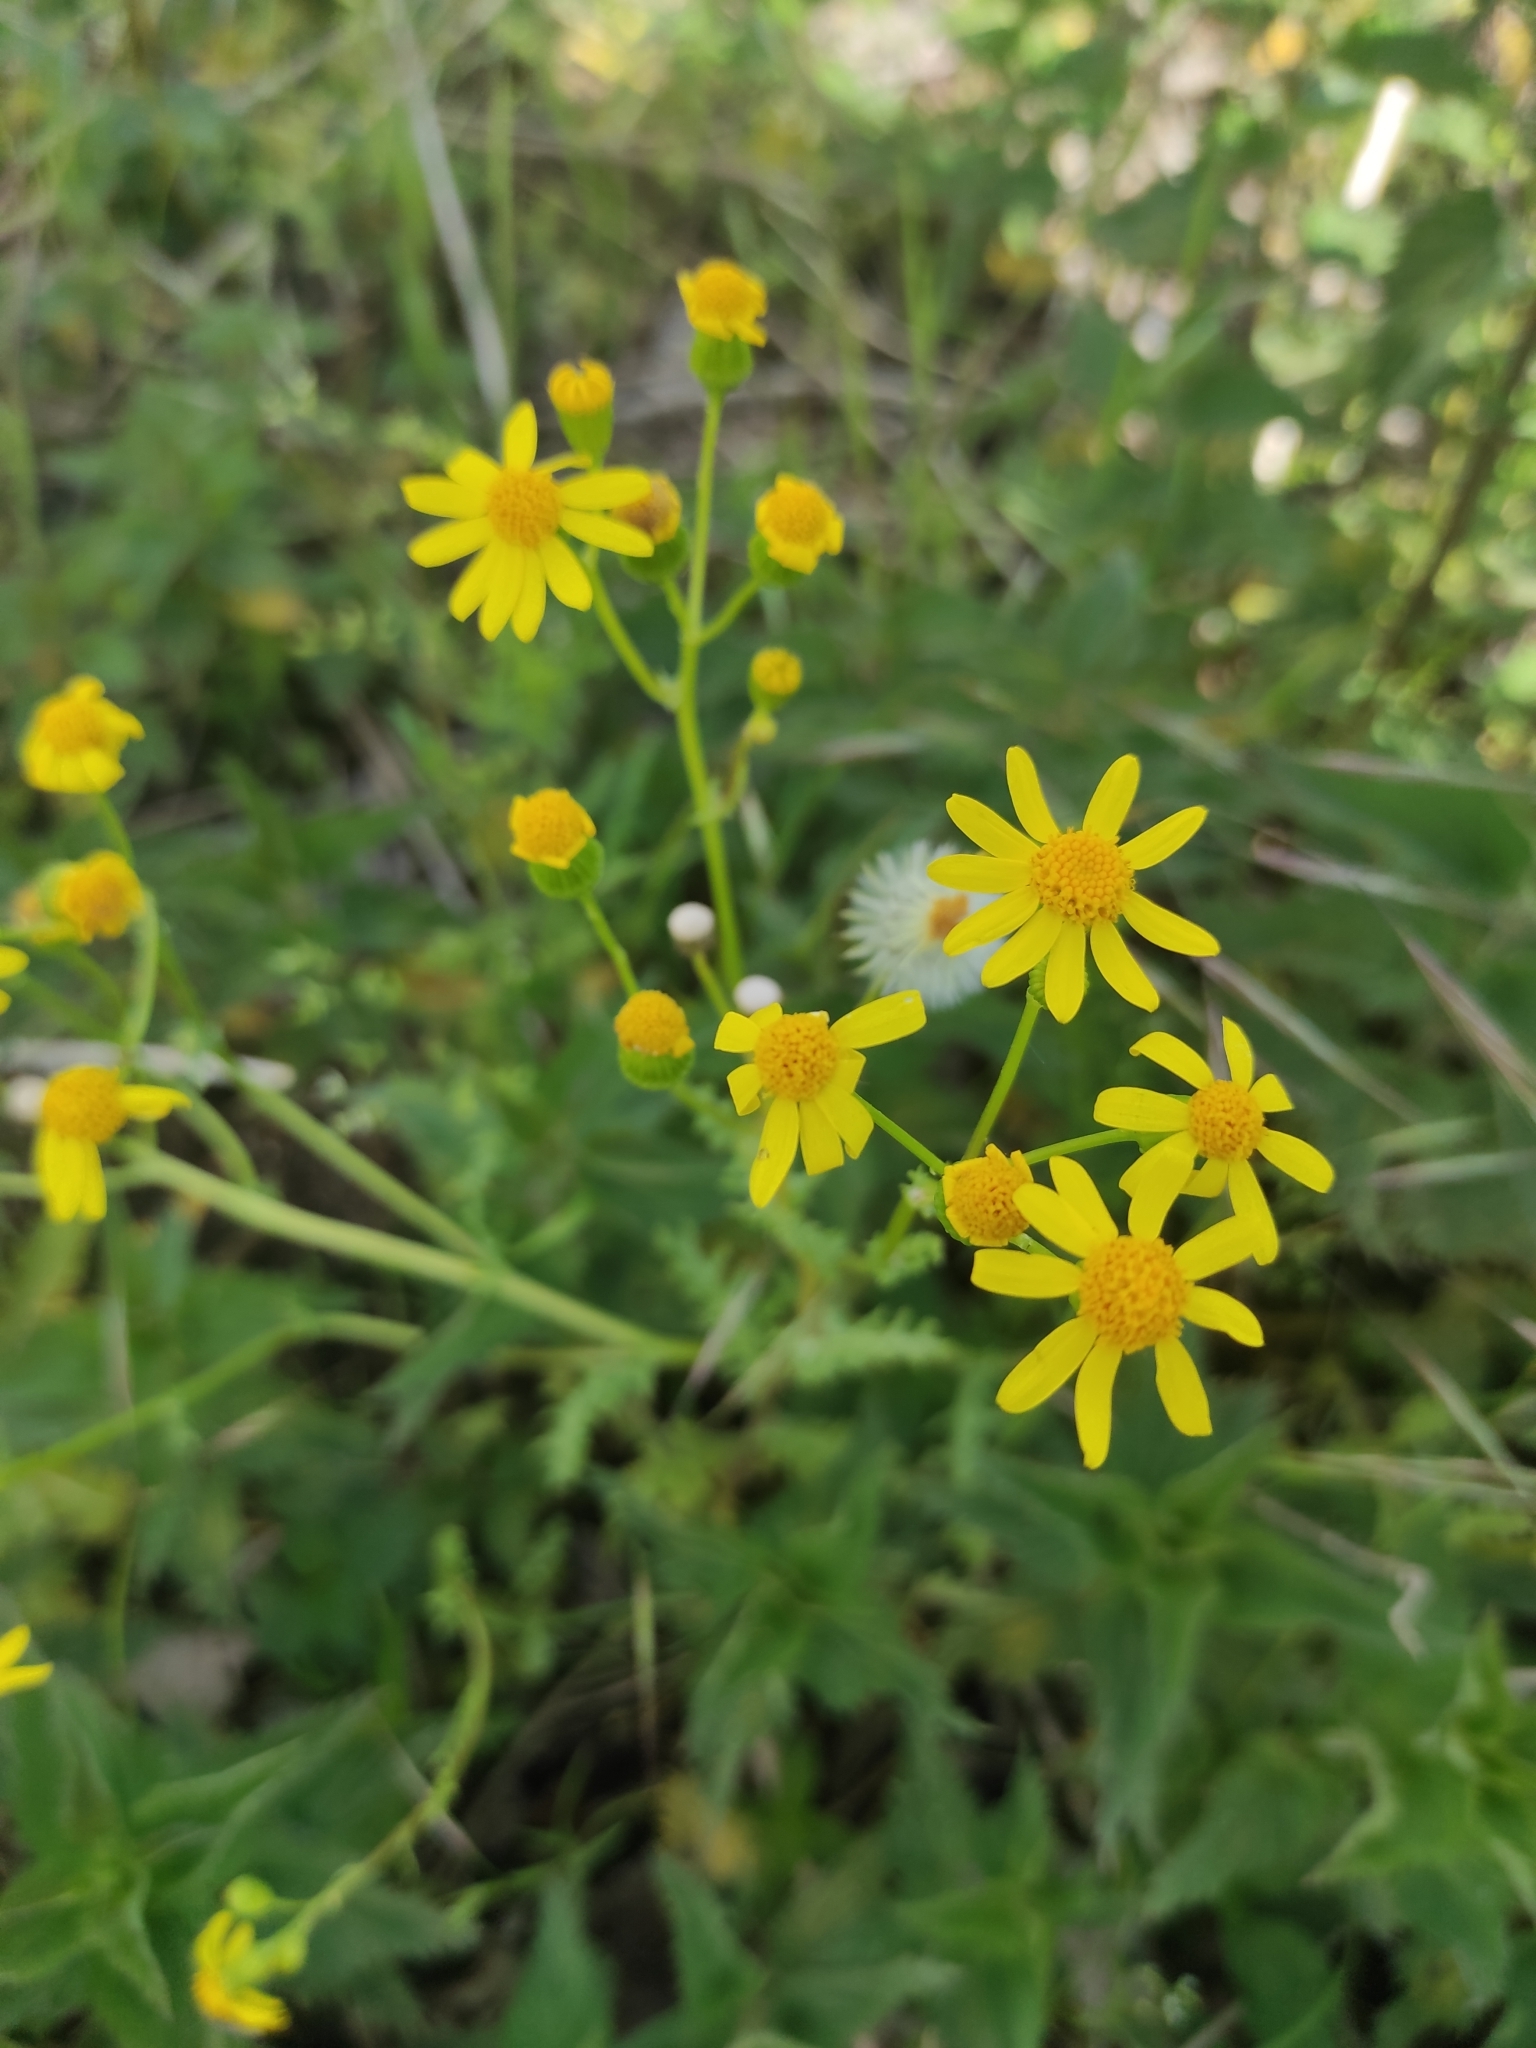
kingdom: Plantae
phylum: Tracheophyta
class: Magnoliopsida
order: Asterales
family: Asteraceae
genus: Senecio
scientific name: Senecio vernalis
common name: Eastern groundsel
